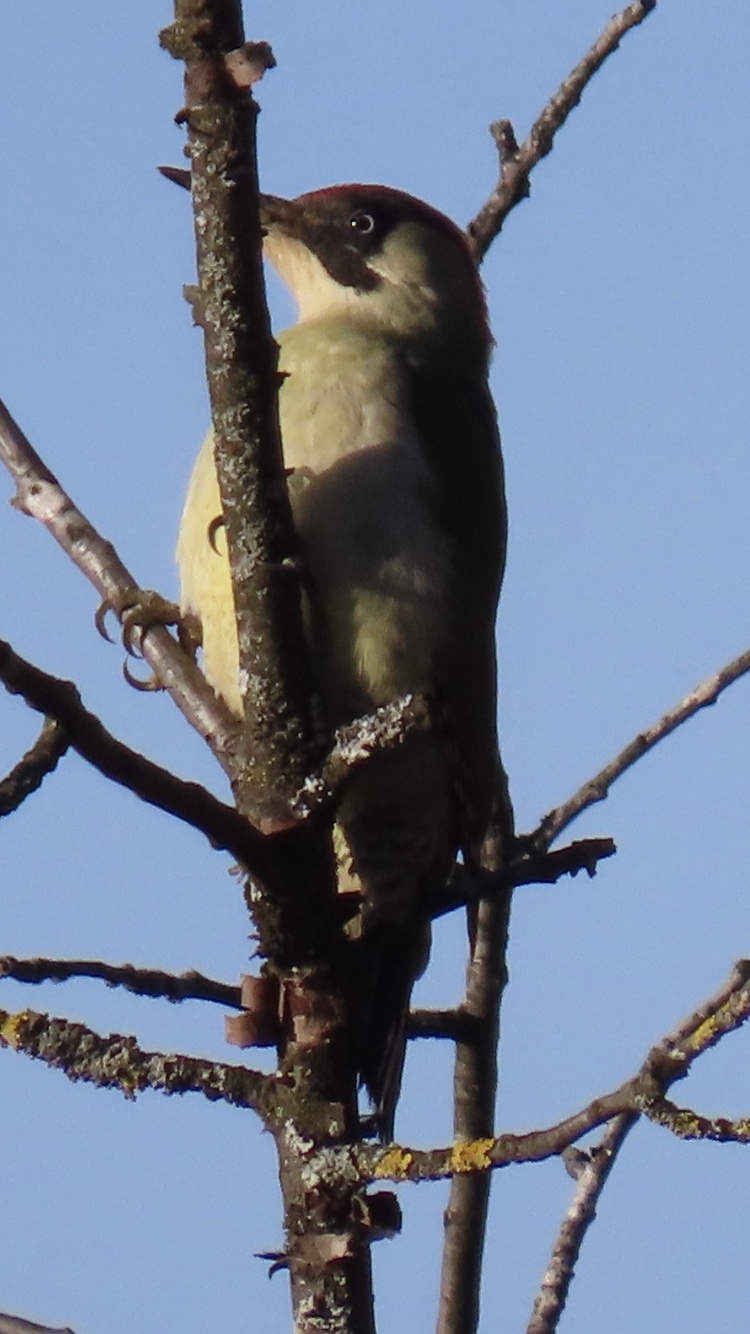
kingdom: Animalia
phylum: Chordata
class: Aves
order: Piciformes
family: Picidae
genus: Picus
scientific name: Picus viridis
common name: European green woodpecker
